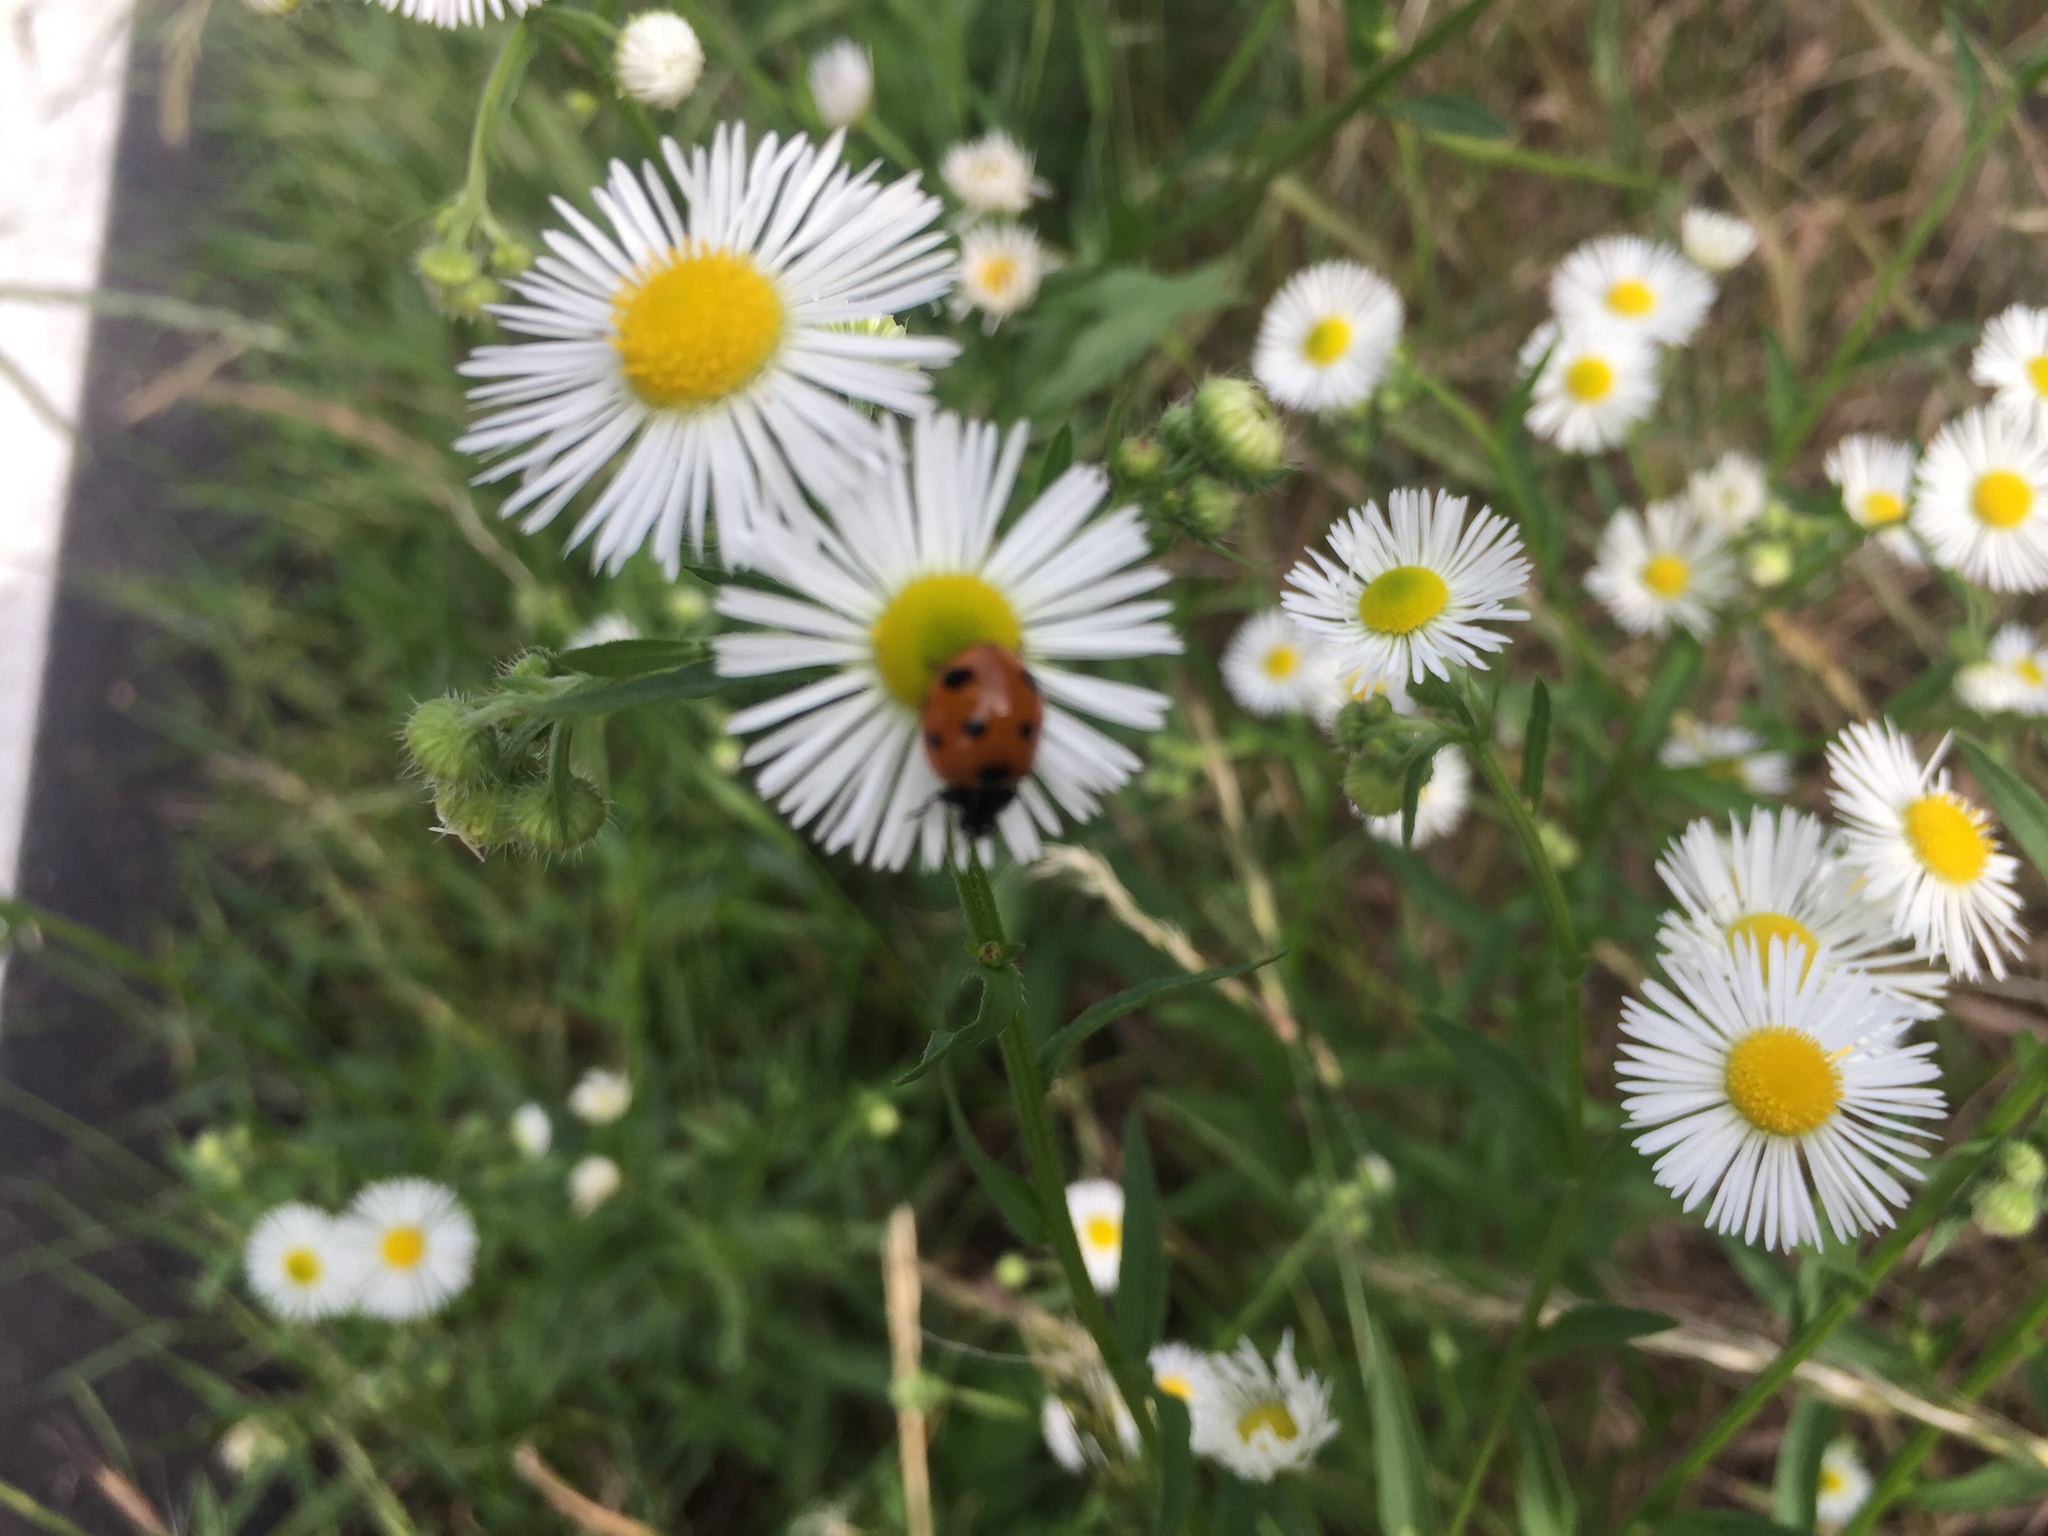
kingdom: Animalia
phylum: Arthropoda
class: Insecta
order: Coleoptera
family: Coccinellidae
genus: Coccinella
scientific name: Coccinella septempunctata
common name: Sevenspotted lady beetle
